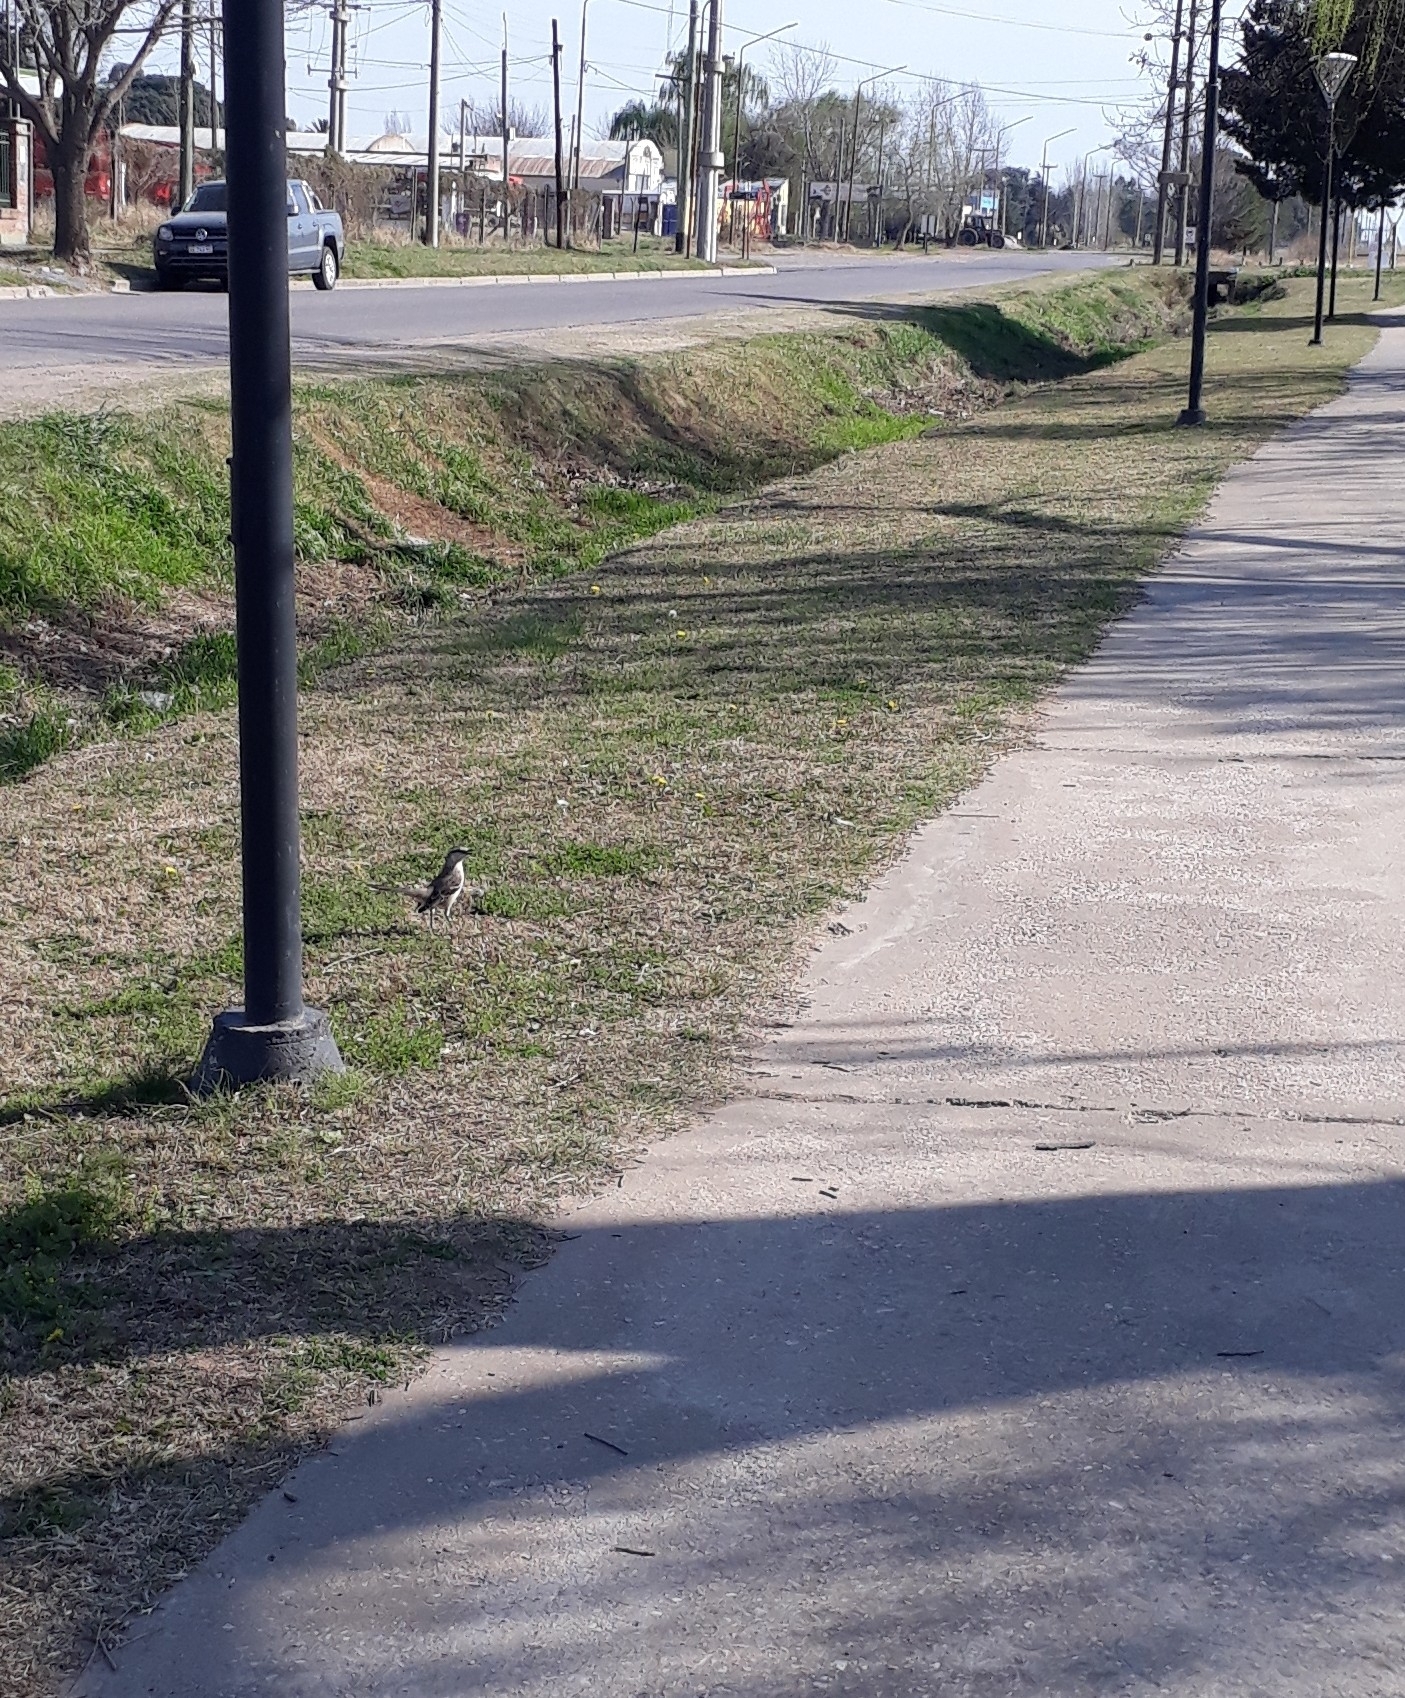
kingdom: Animalia
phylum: Chordata
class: Aves
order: Passeriformes
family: Mimidae
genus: Mimus
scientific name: Mimus saturninus
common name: Chalk-browed mockingbird
